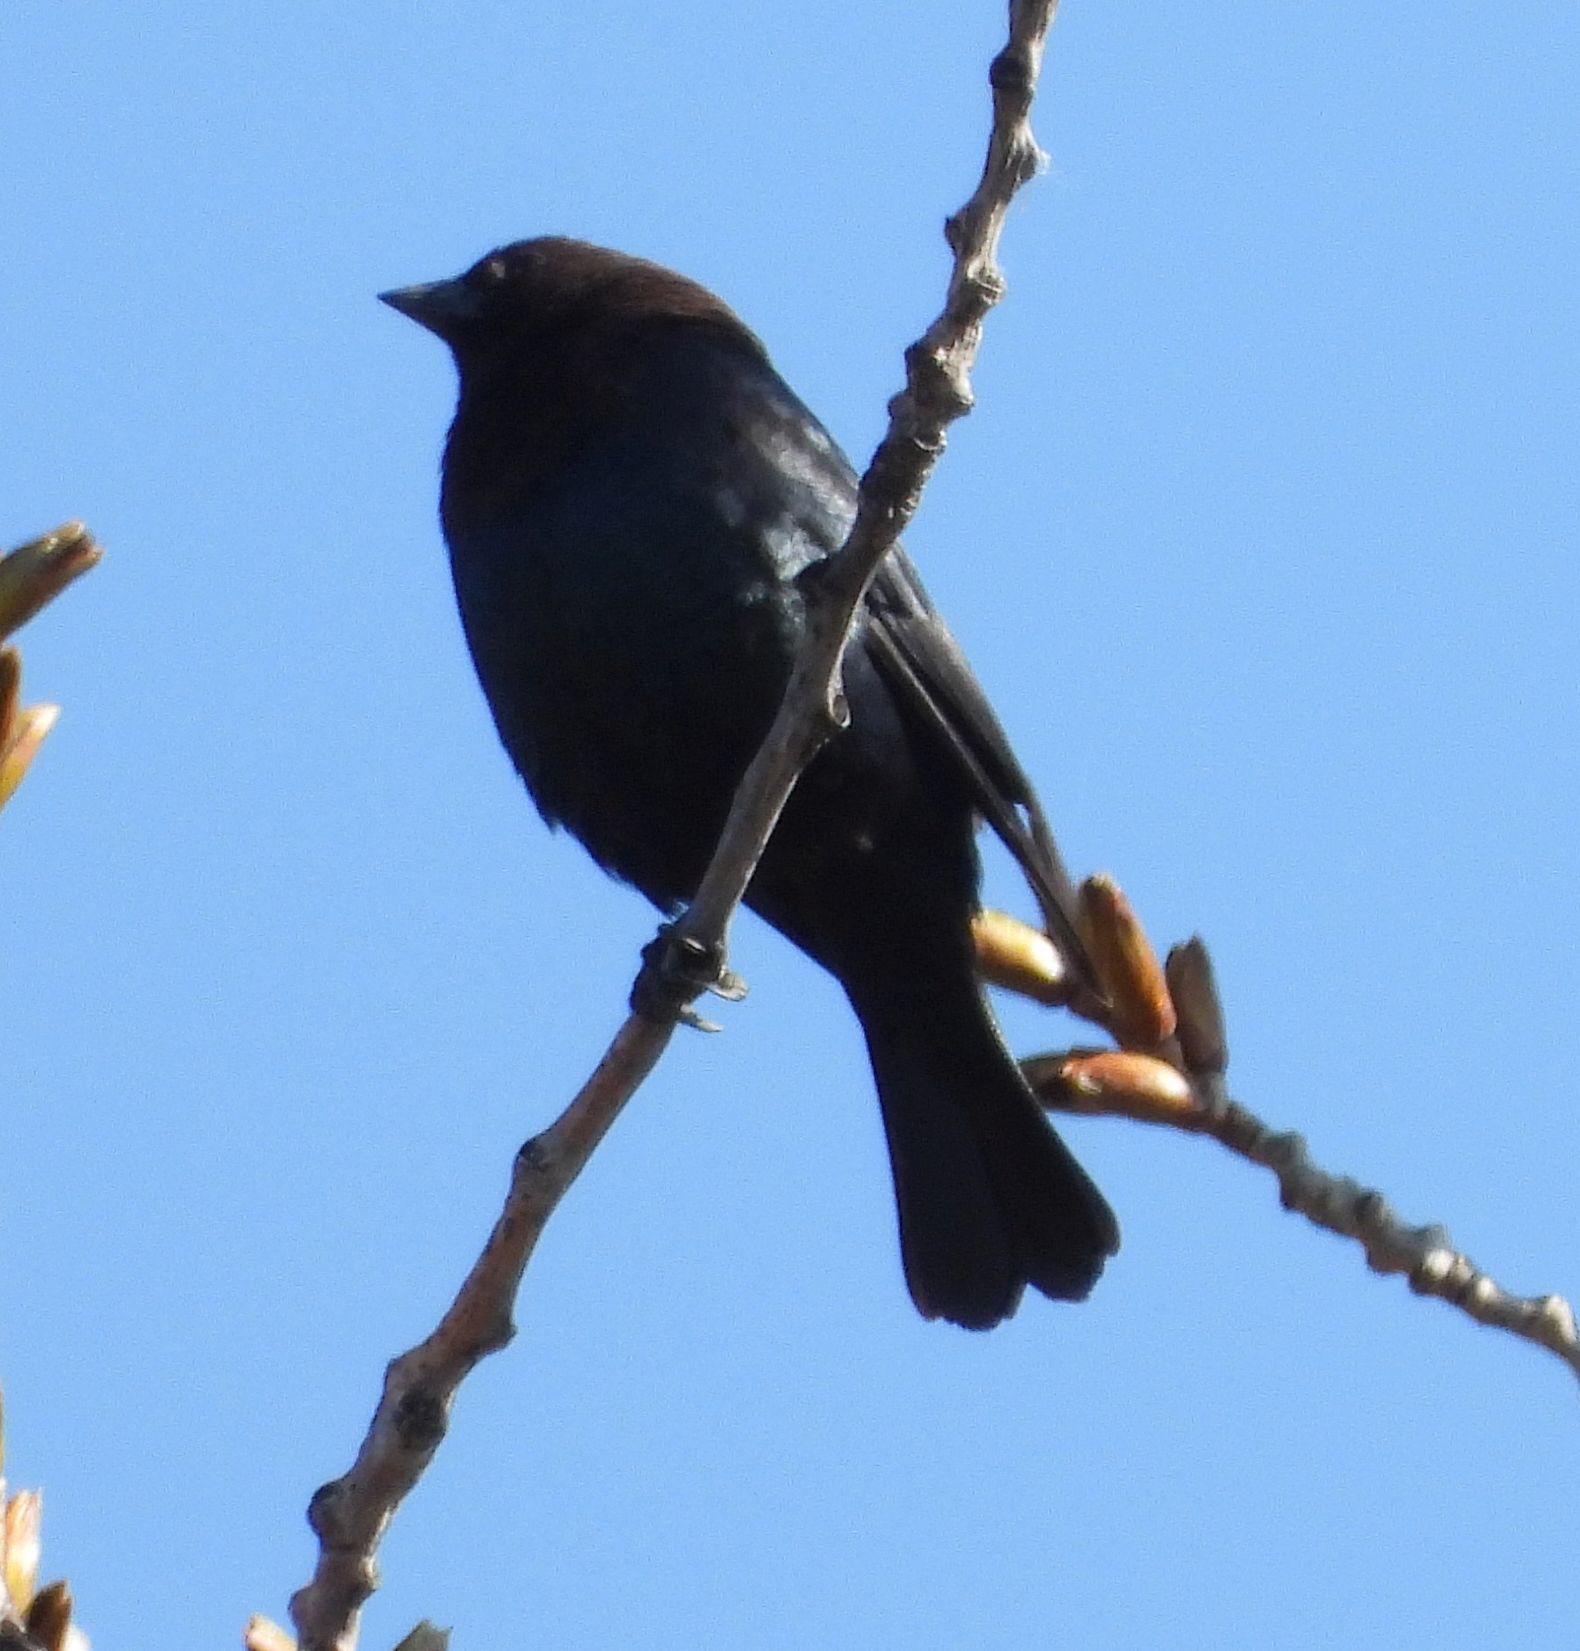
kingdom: Animalia
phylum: Chordata
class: Aves
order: Passeriformes
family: Icteridae
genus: Molothrus
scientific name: Molothrus ater
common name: Brown-headed cowbird
